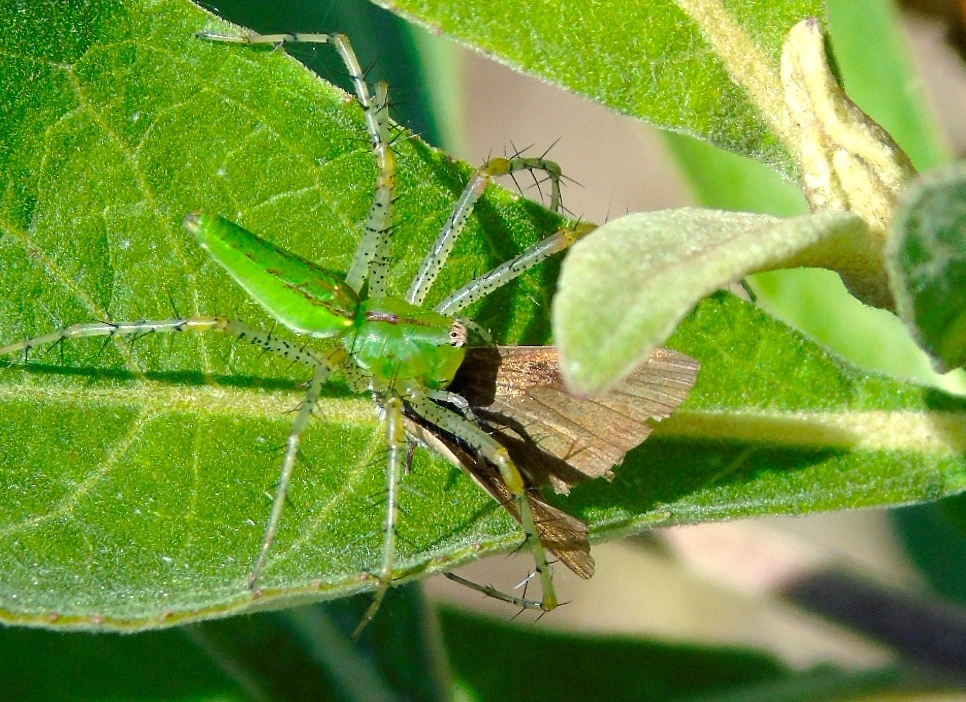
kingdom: Animalia
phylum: Arthropoda
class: Arachnida
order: Araneae
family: Oxyopidae
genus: Peucetia
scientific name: Peucetia viridans
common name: Lynx spiders
